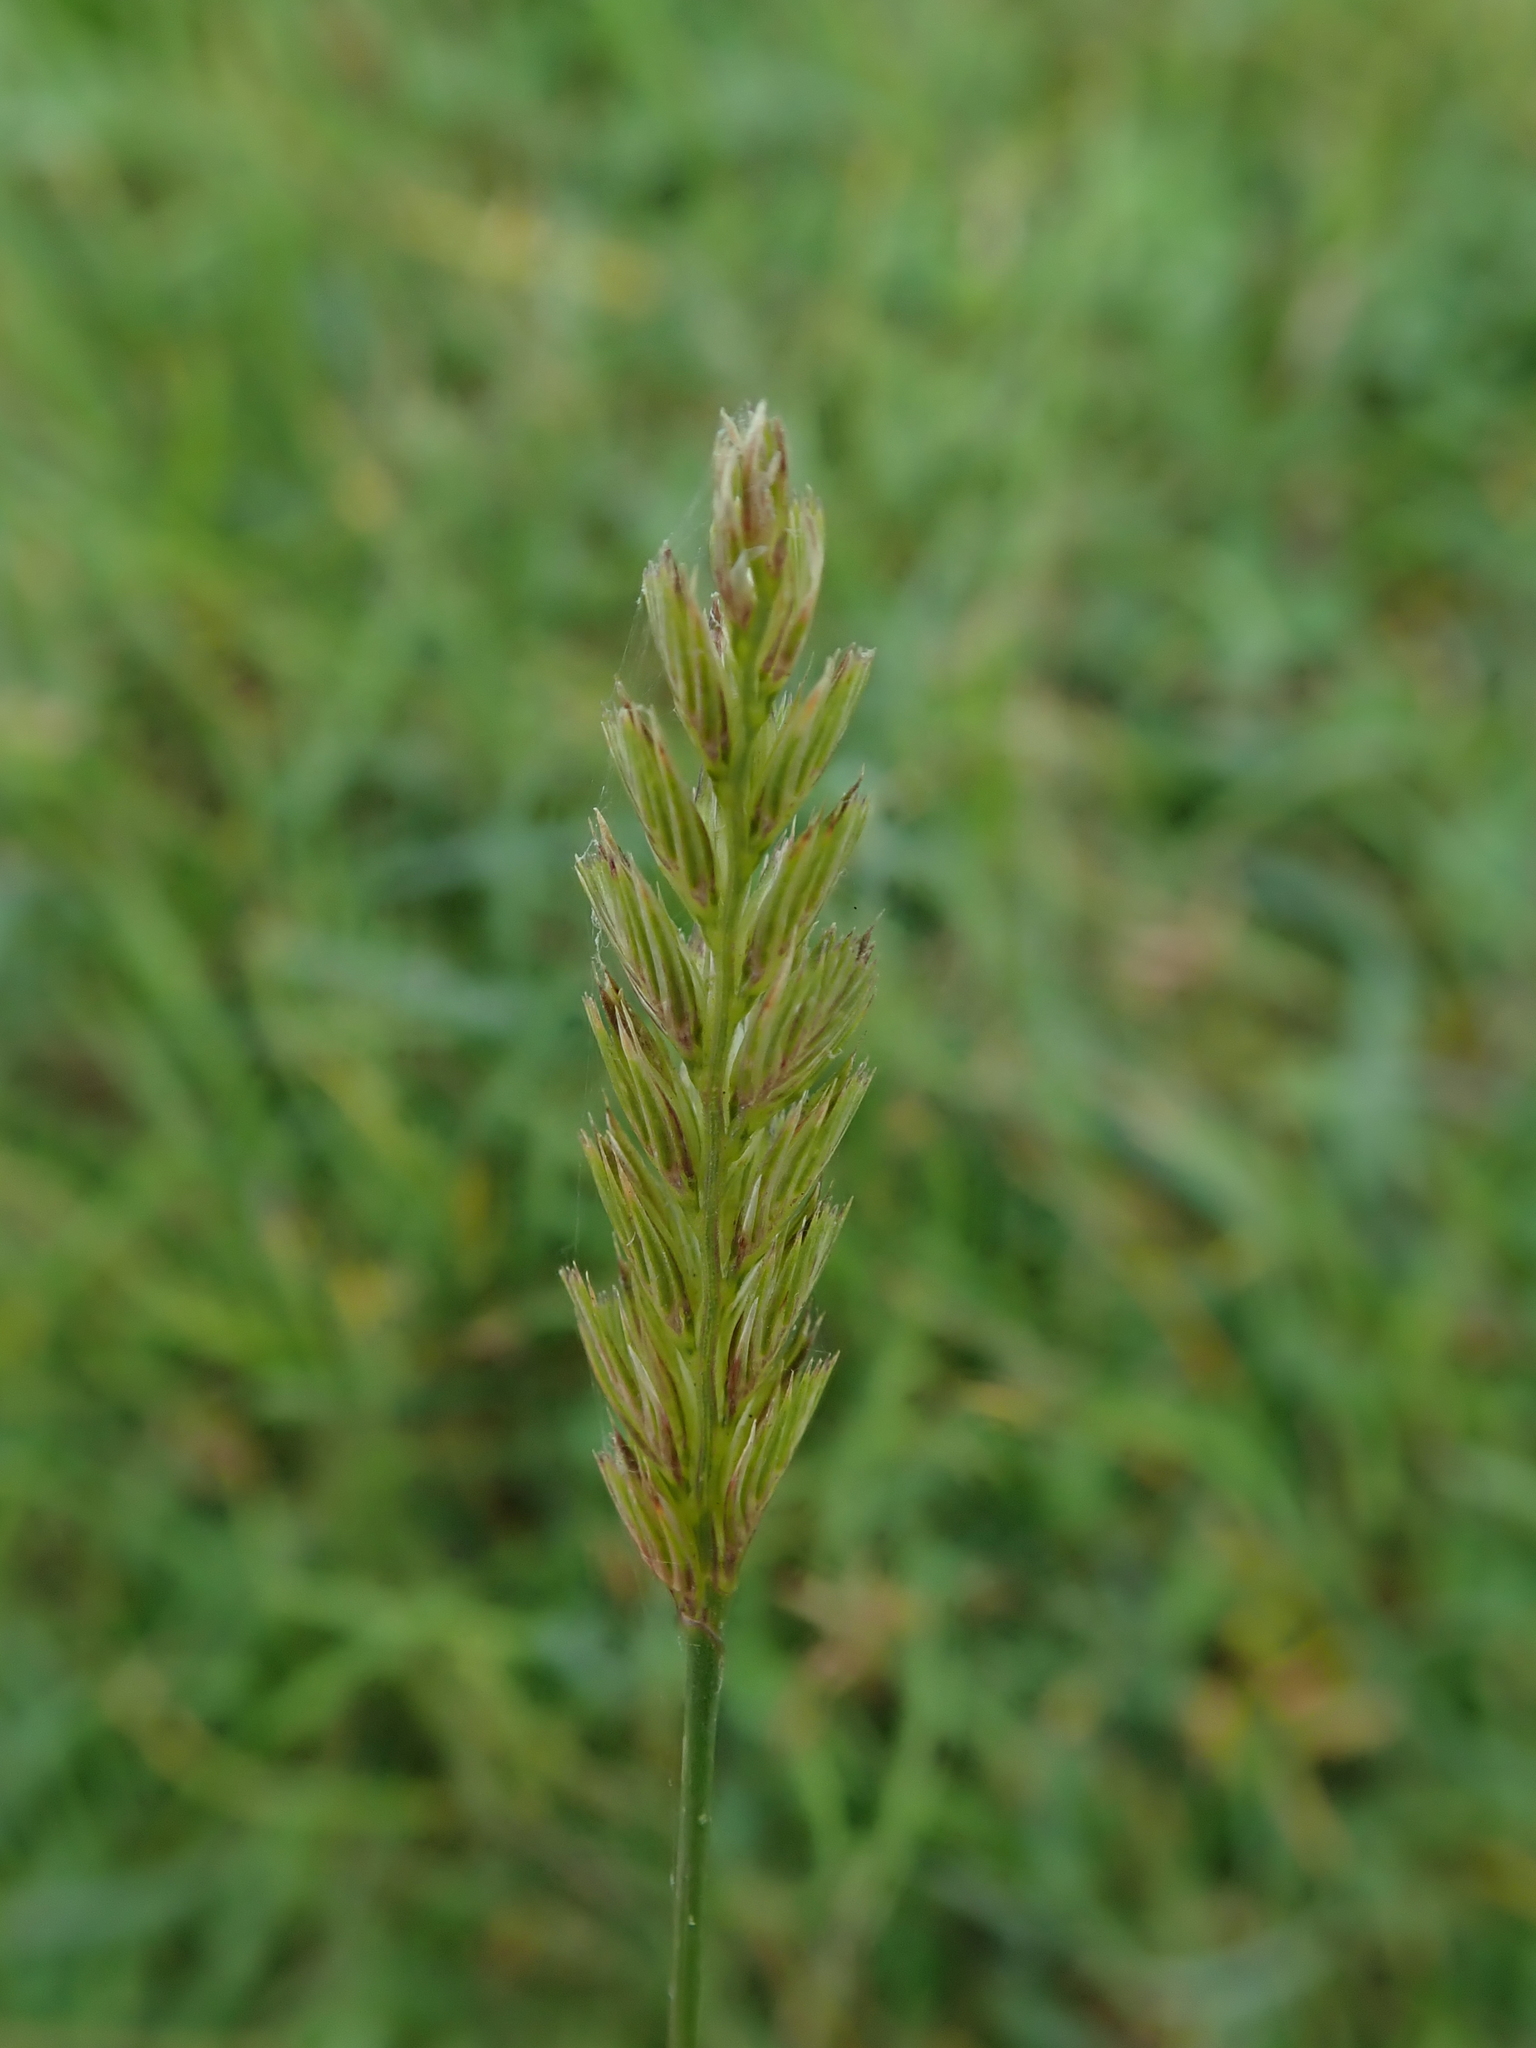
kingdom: Plantae
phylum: Tracheophyta
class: Liliopsida
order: Poales
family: Poaceae
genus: Cynosurus
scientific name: Cynosurus cristatus
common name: Crested dog's-tail
